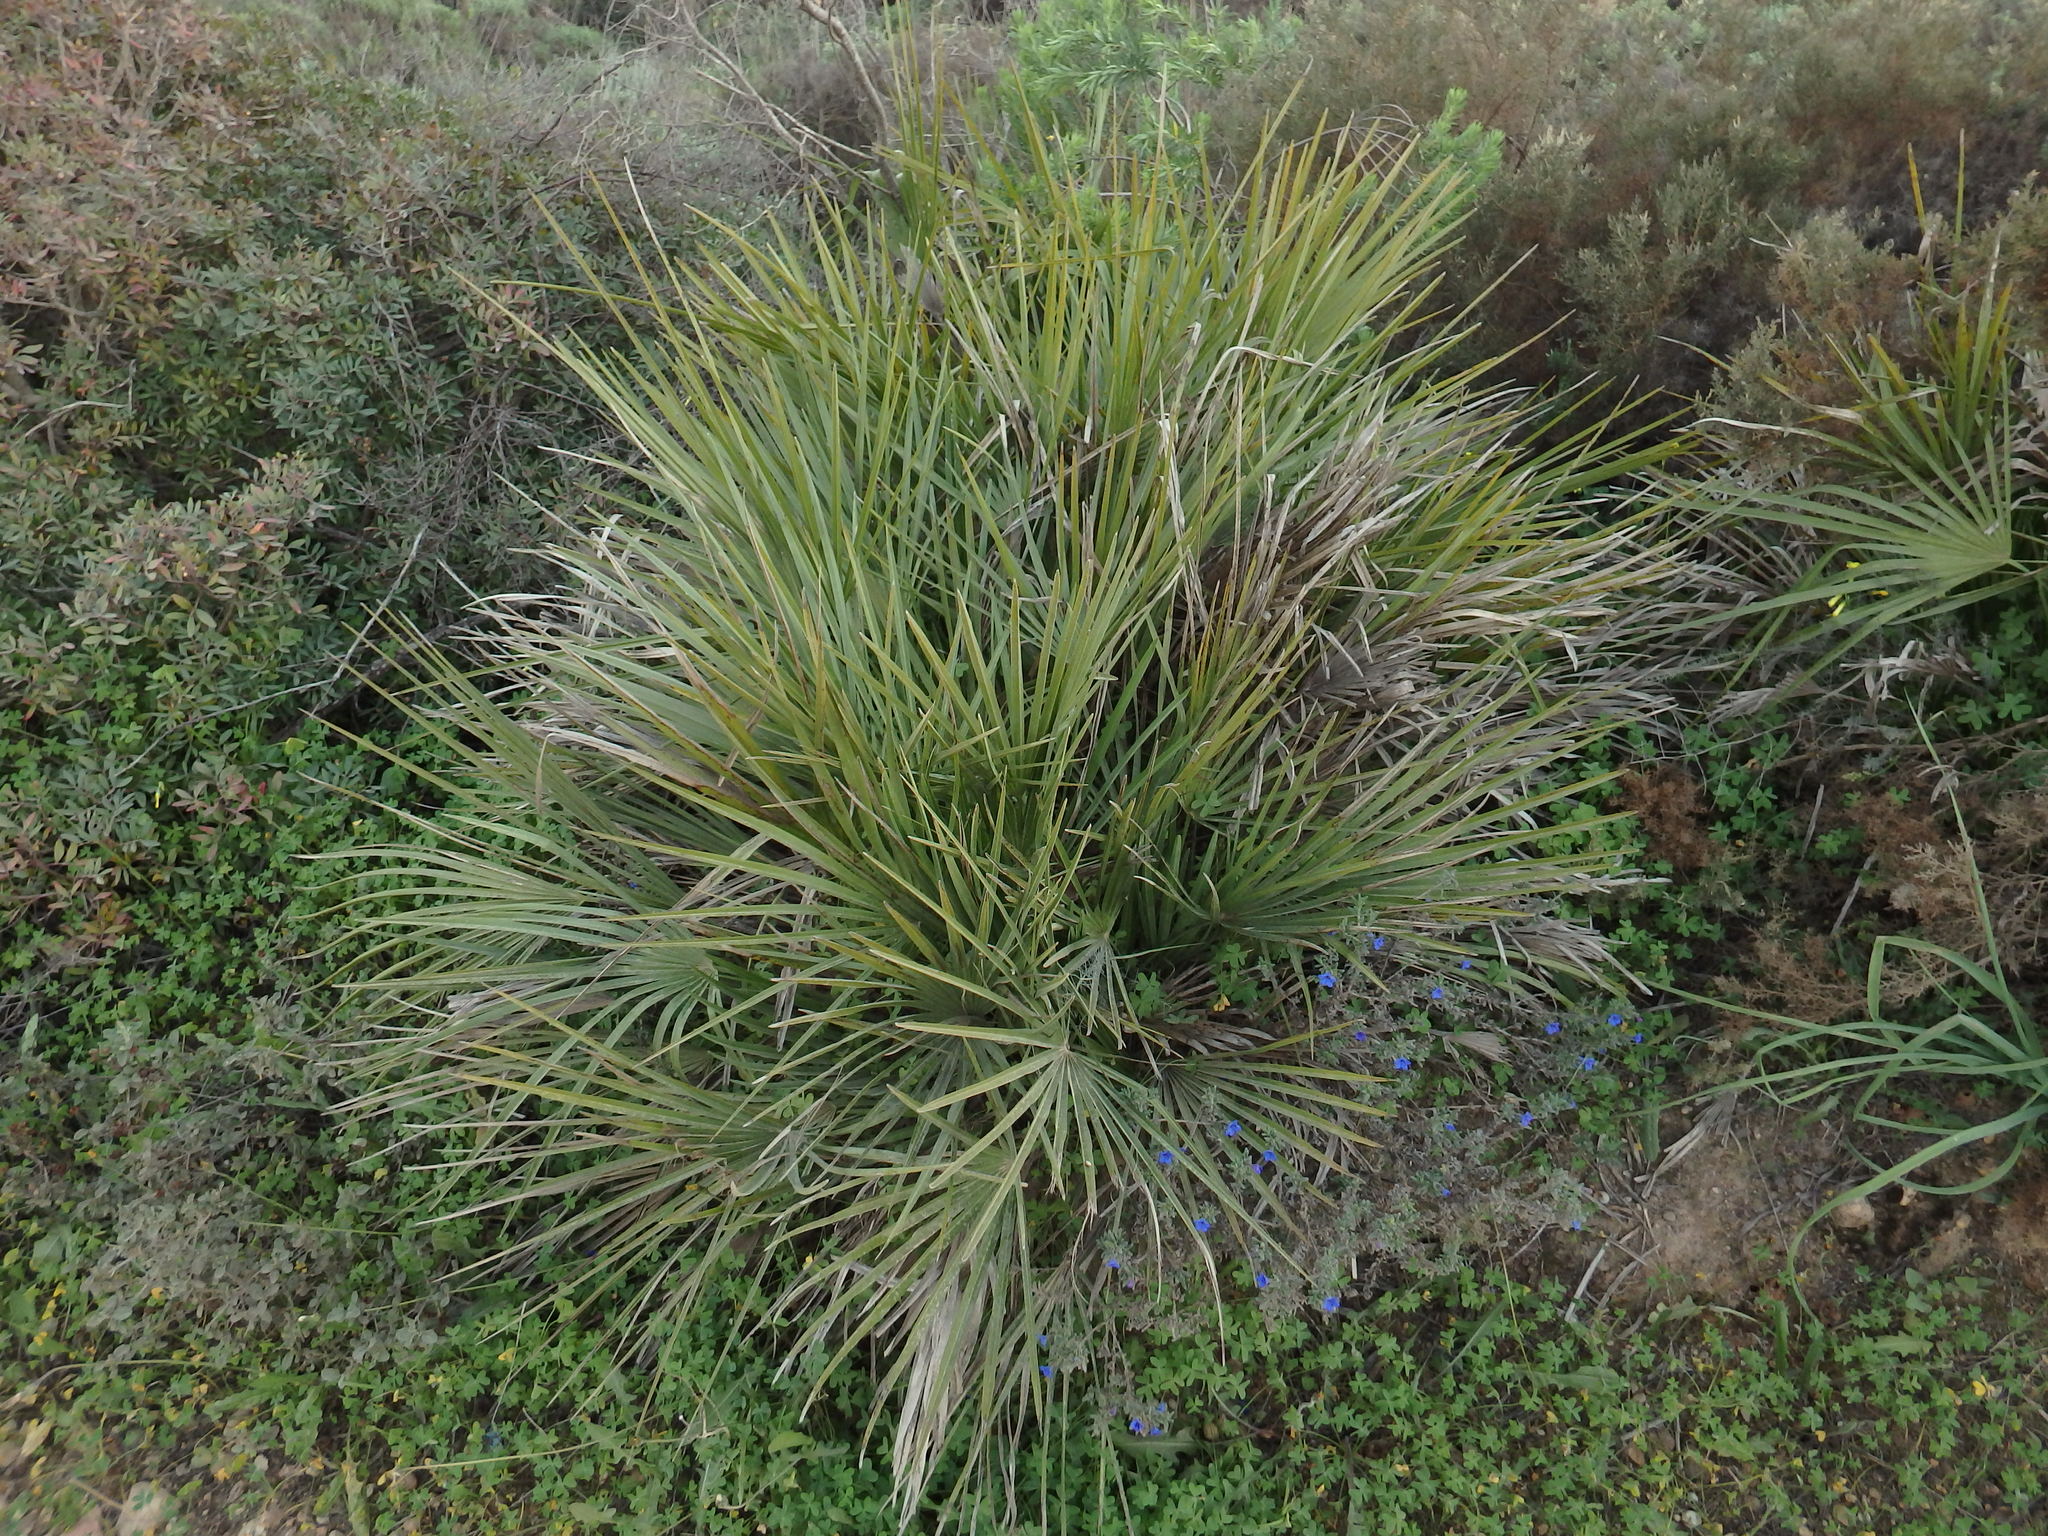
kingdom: Plantae
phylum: Tracheophyta
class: Liliopsida
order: Arecales
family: Arecaceae
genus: Chamaerops
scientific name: Chamaerops humilis
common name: Dwarf fan palm
